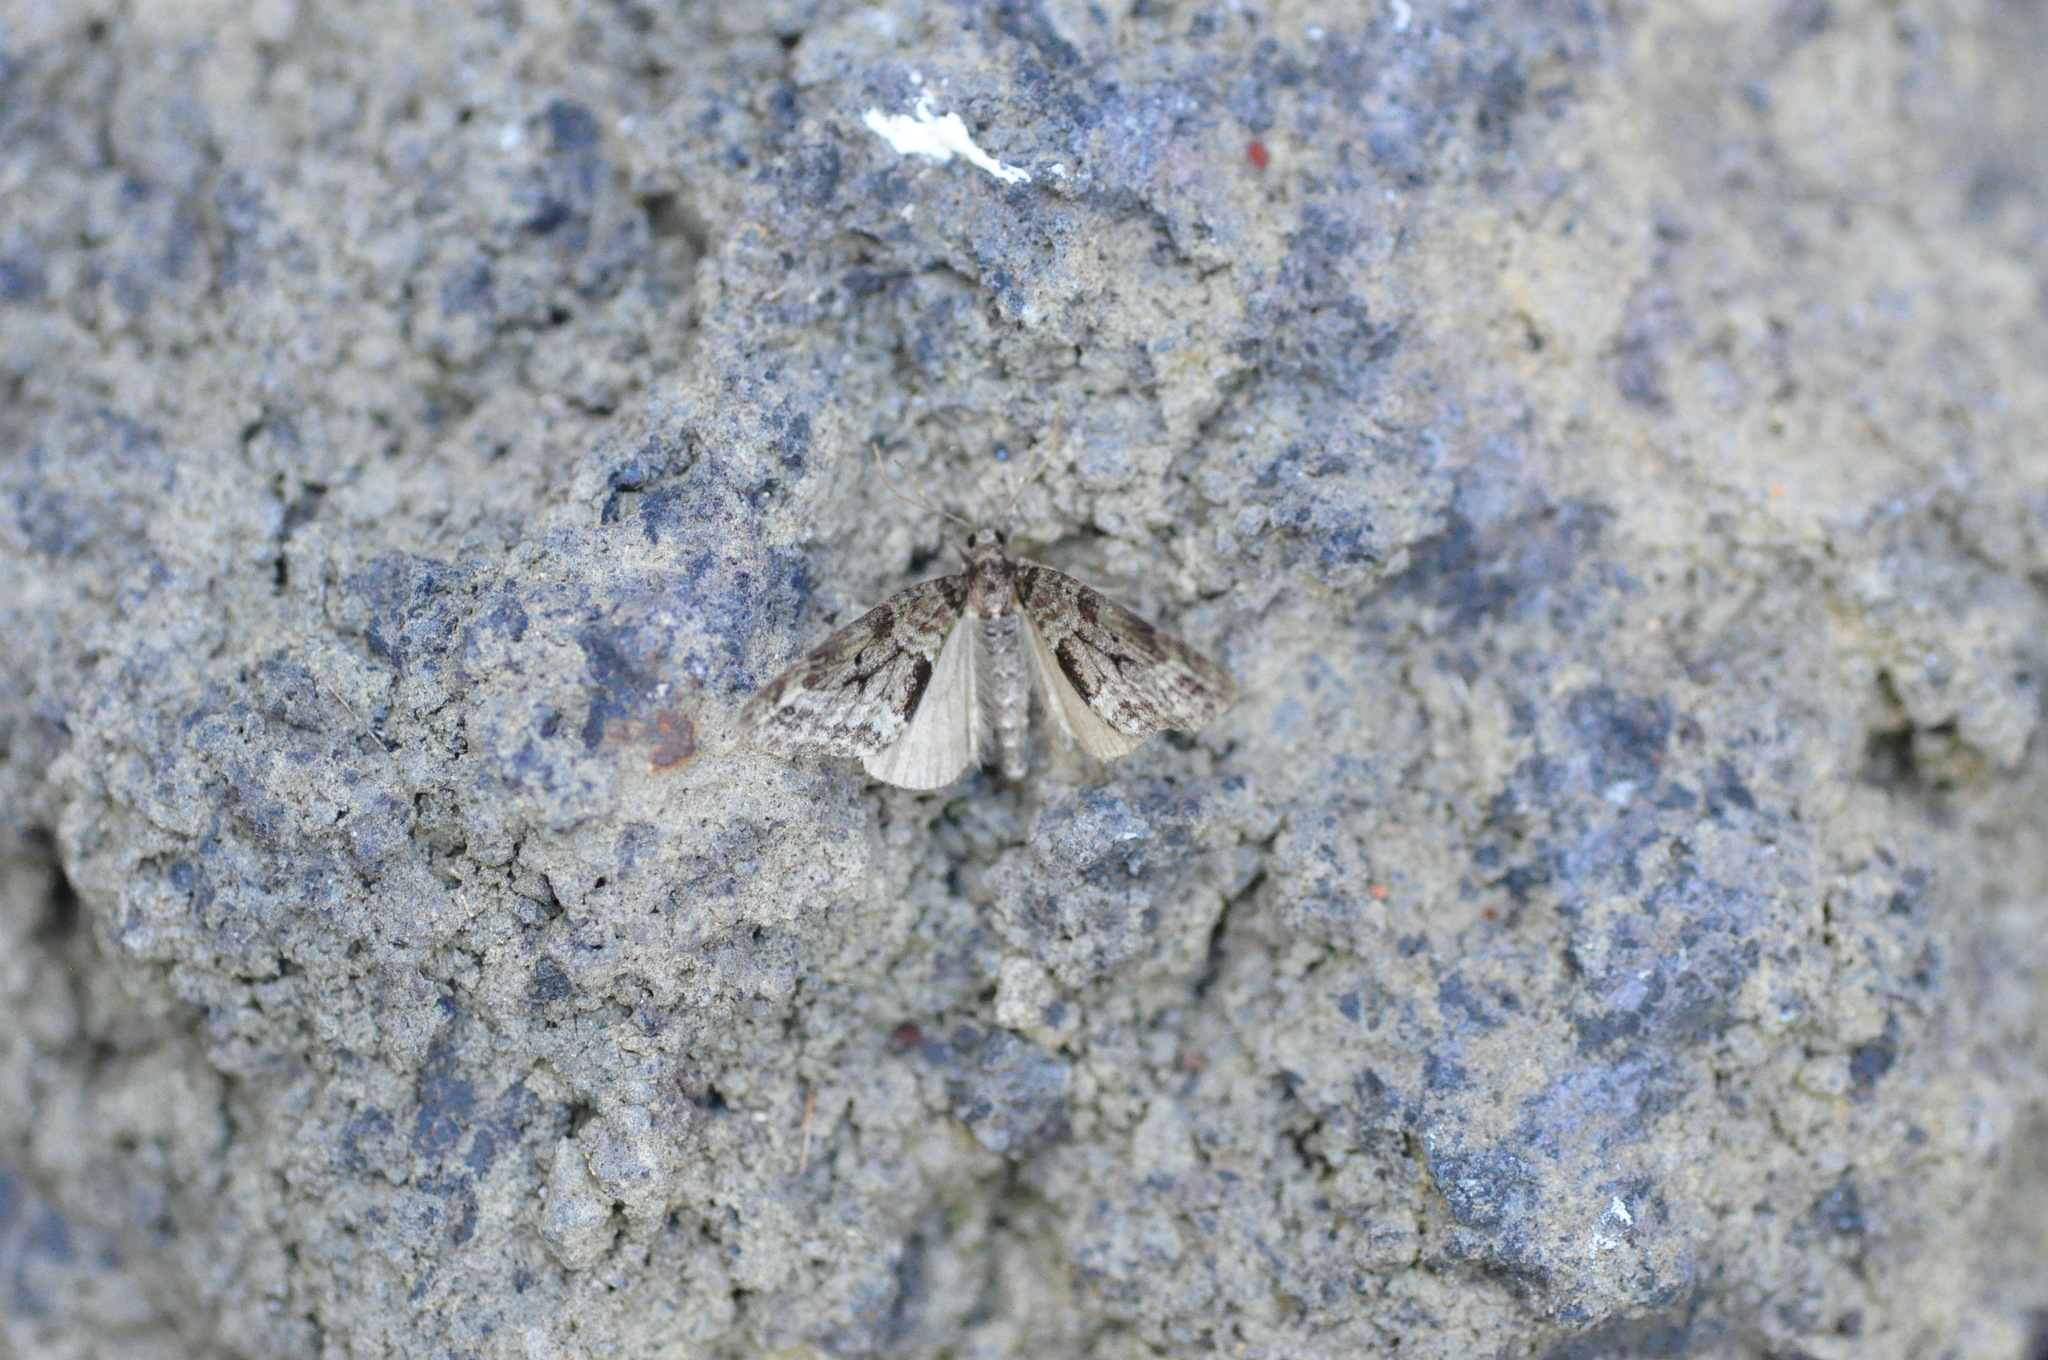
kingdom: Animalia
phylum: Arthropoda
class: Insecta
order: Lepidoptera
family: Geometridae
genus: Episauris
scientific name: Episauris kiliani
